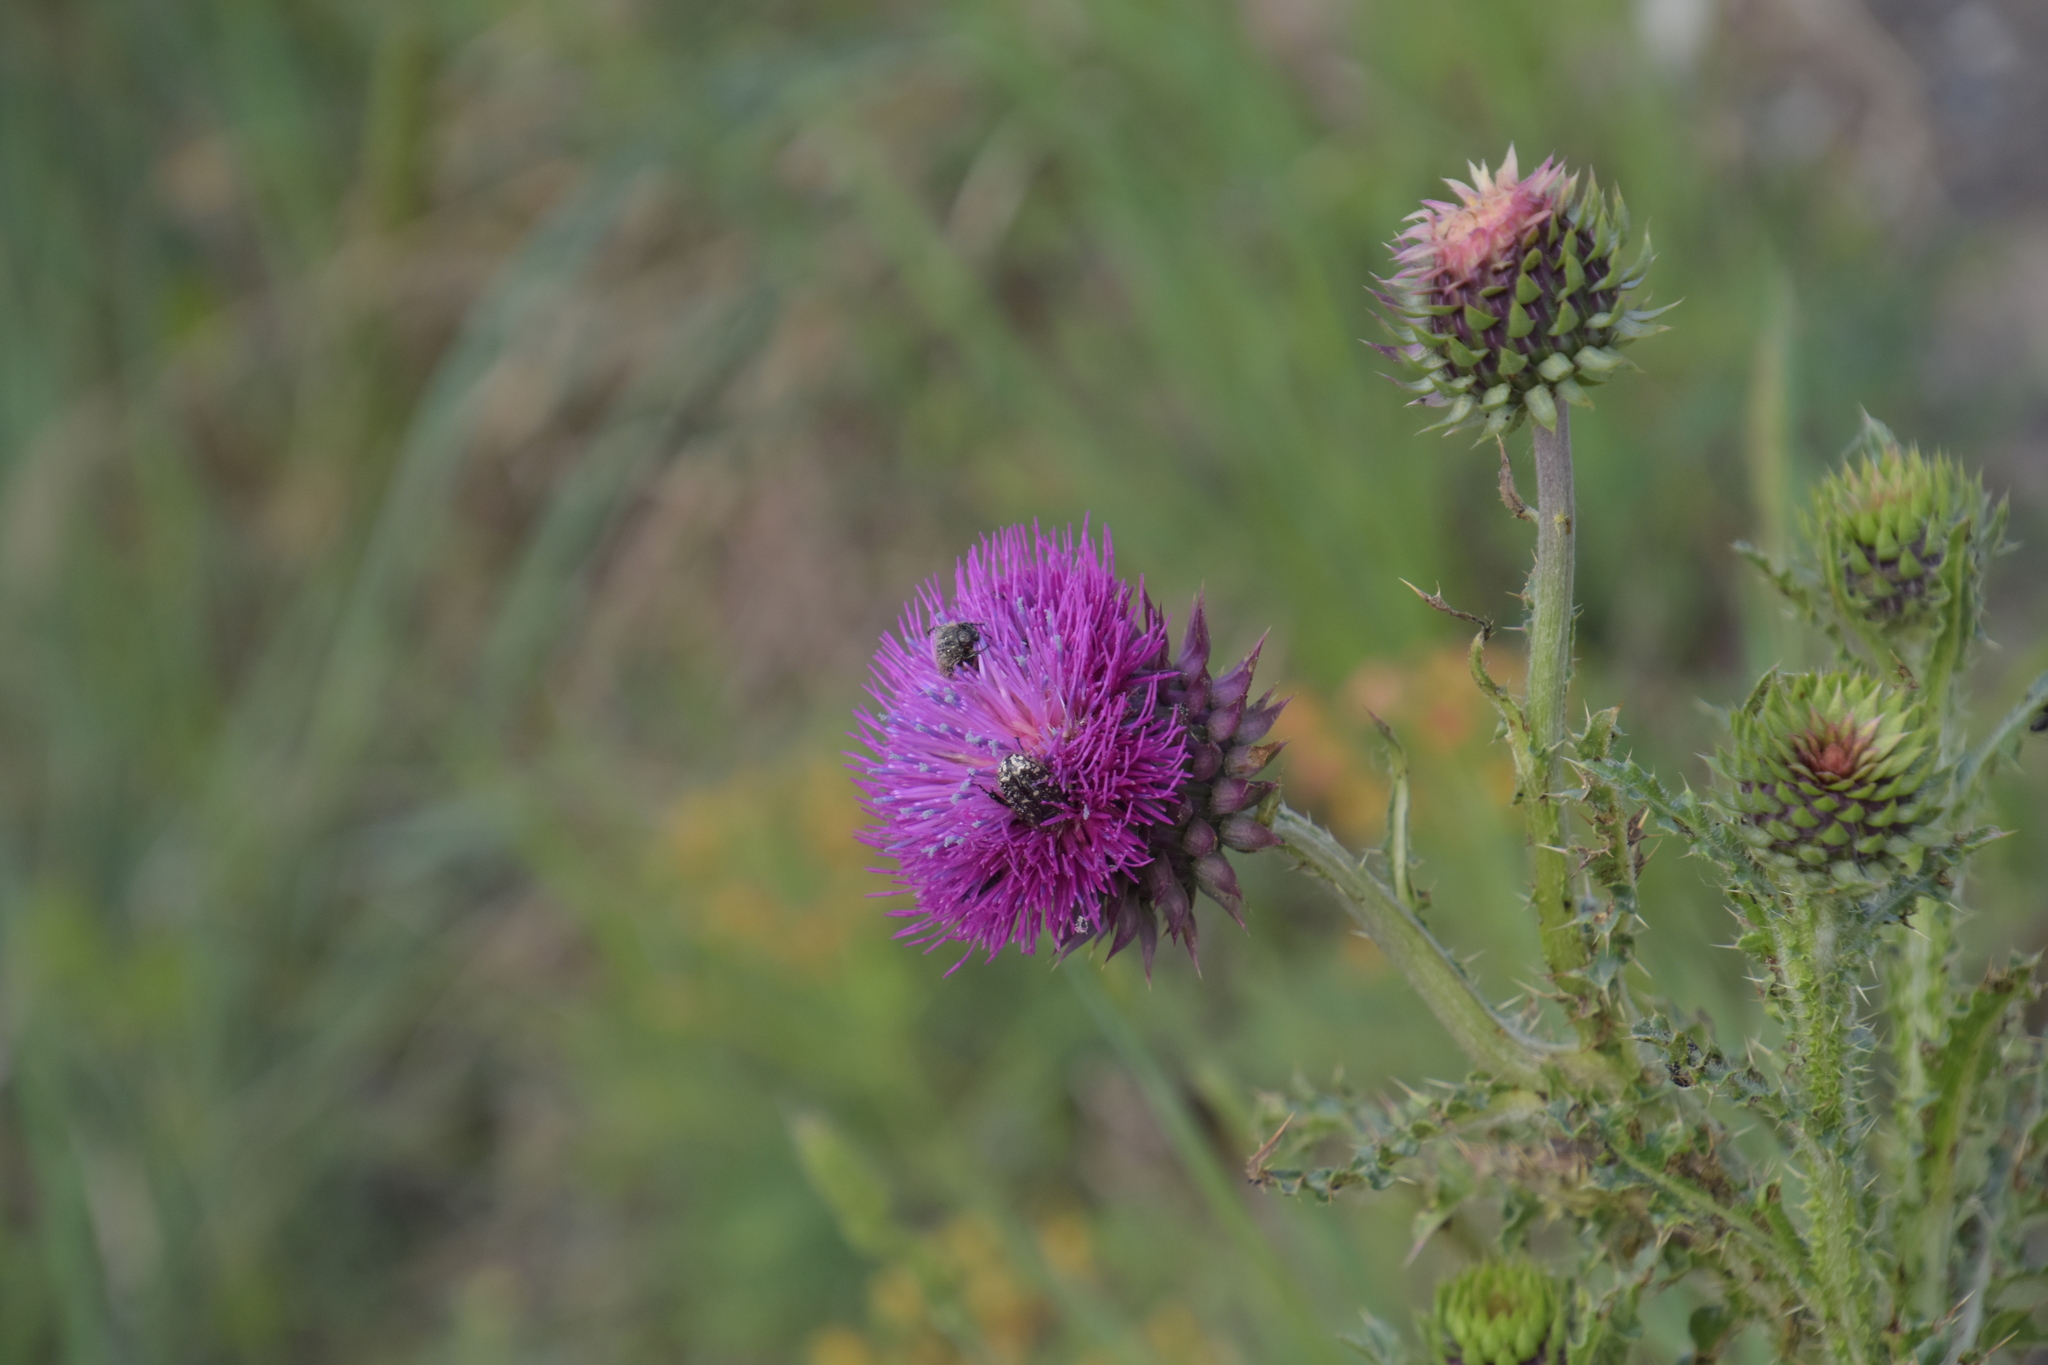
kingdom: Animalia
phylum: Arthropoda
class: Insecta
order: Coleoptera
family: Scarabaeidae
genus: Oxythyrea
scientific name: Oxythyrea funesta
